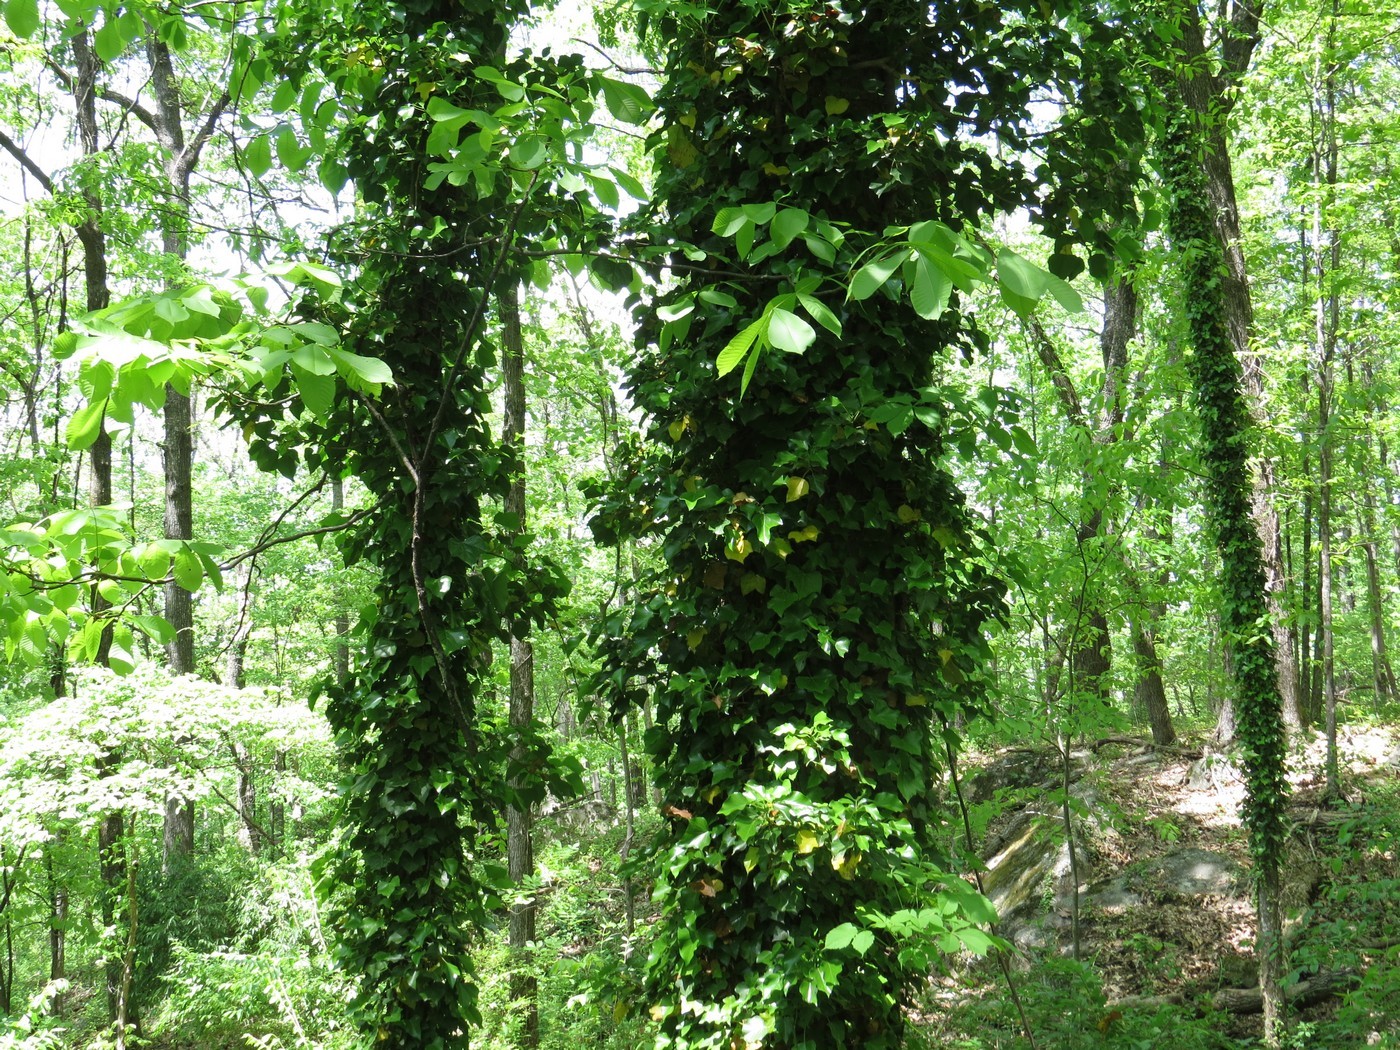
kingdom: Plantae
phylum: Tracheophyta
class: Magnoliopsida
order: Apiales
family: Araliaceae
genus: Hedera
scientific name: Hedera helix
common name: Ivy
